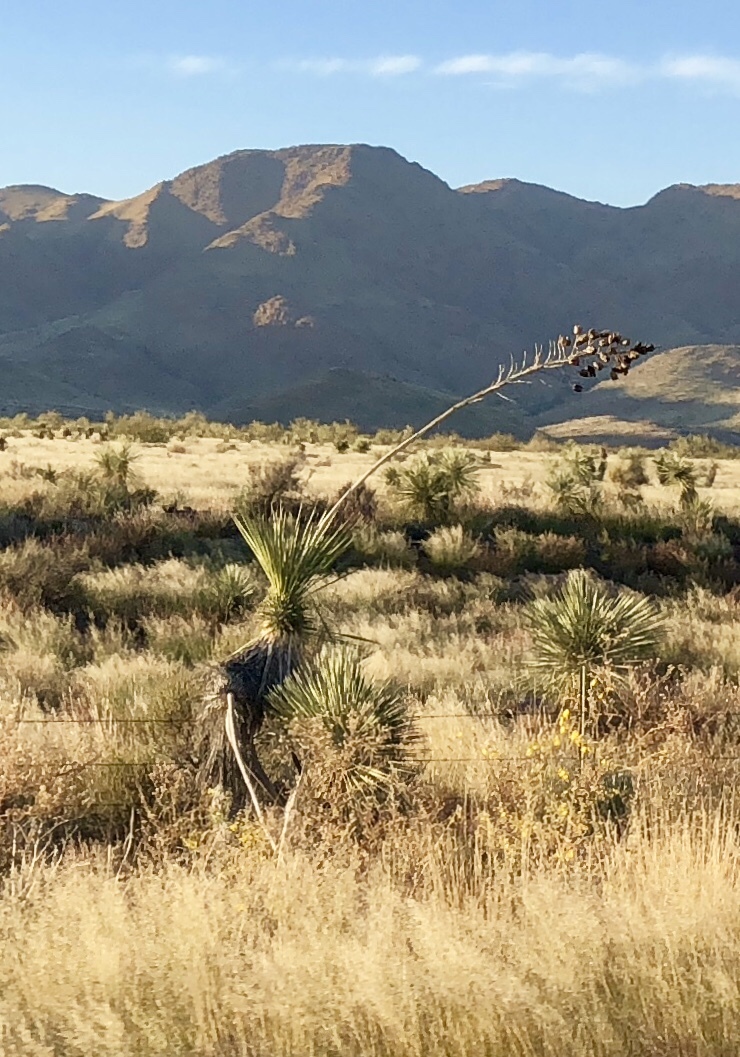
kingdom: Plantae
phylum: Tracheophyta
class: Liliopsida
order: Asparagales
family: Asparagaceae
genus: Yucca
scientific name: Yucca elata
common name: Palmella
